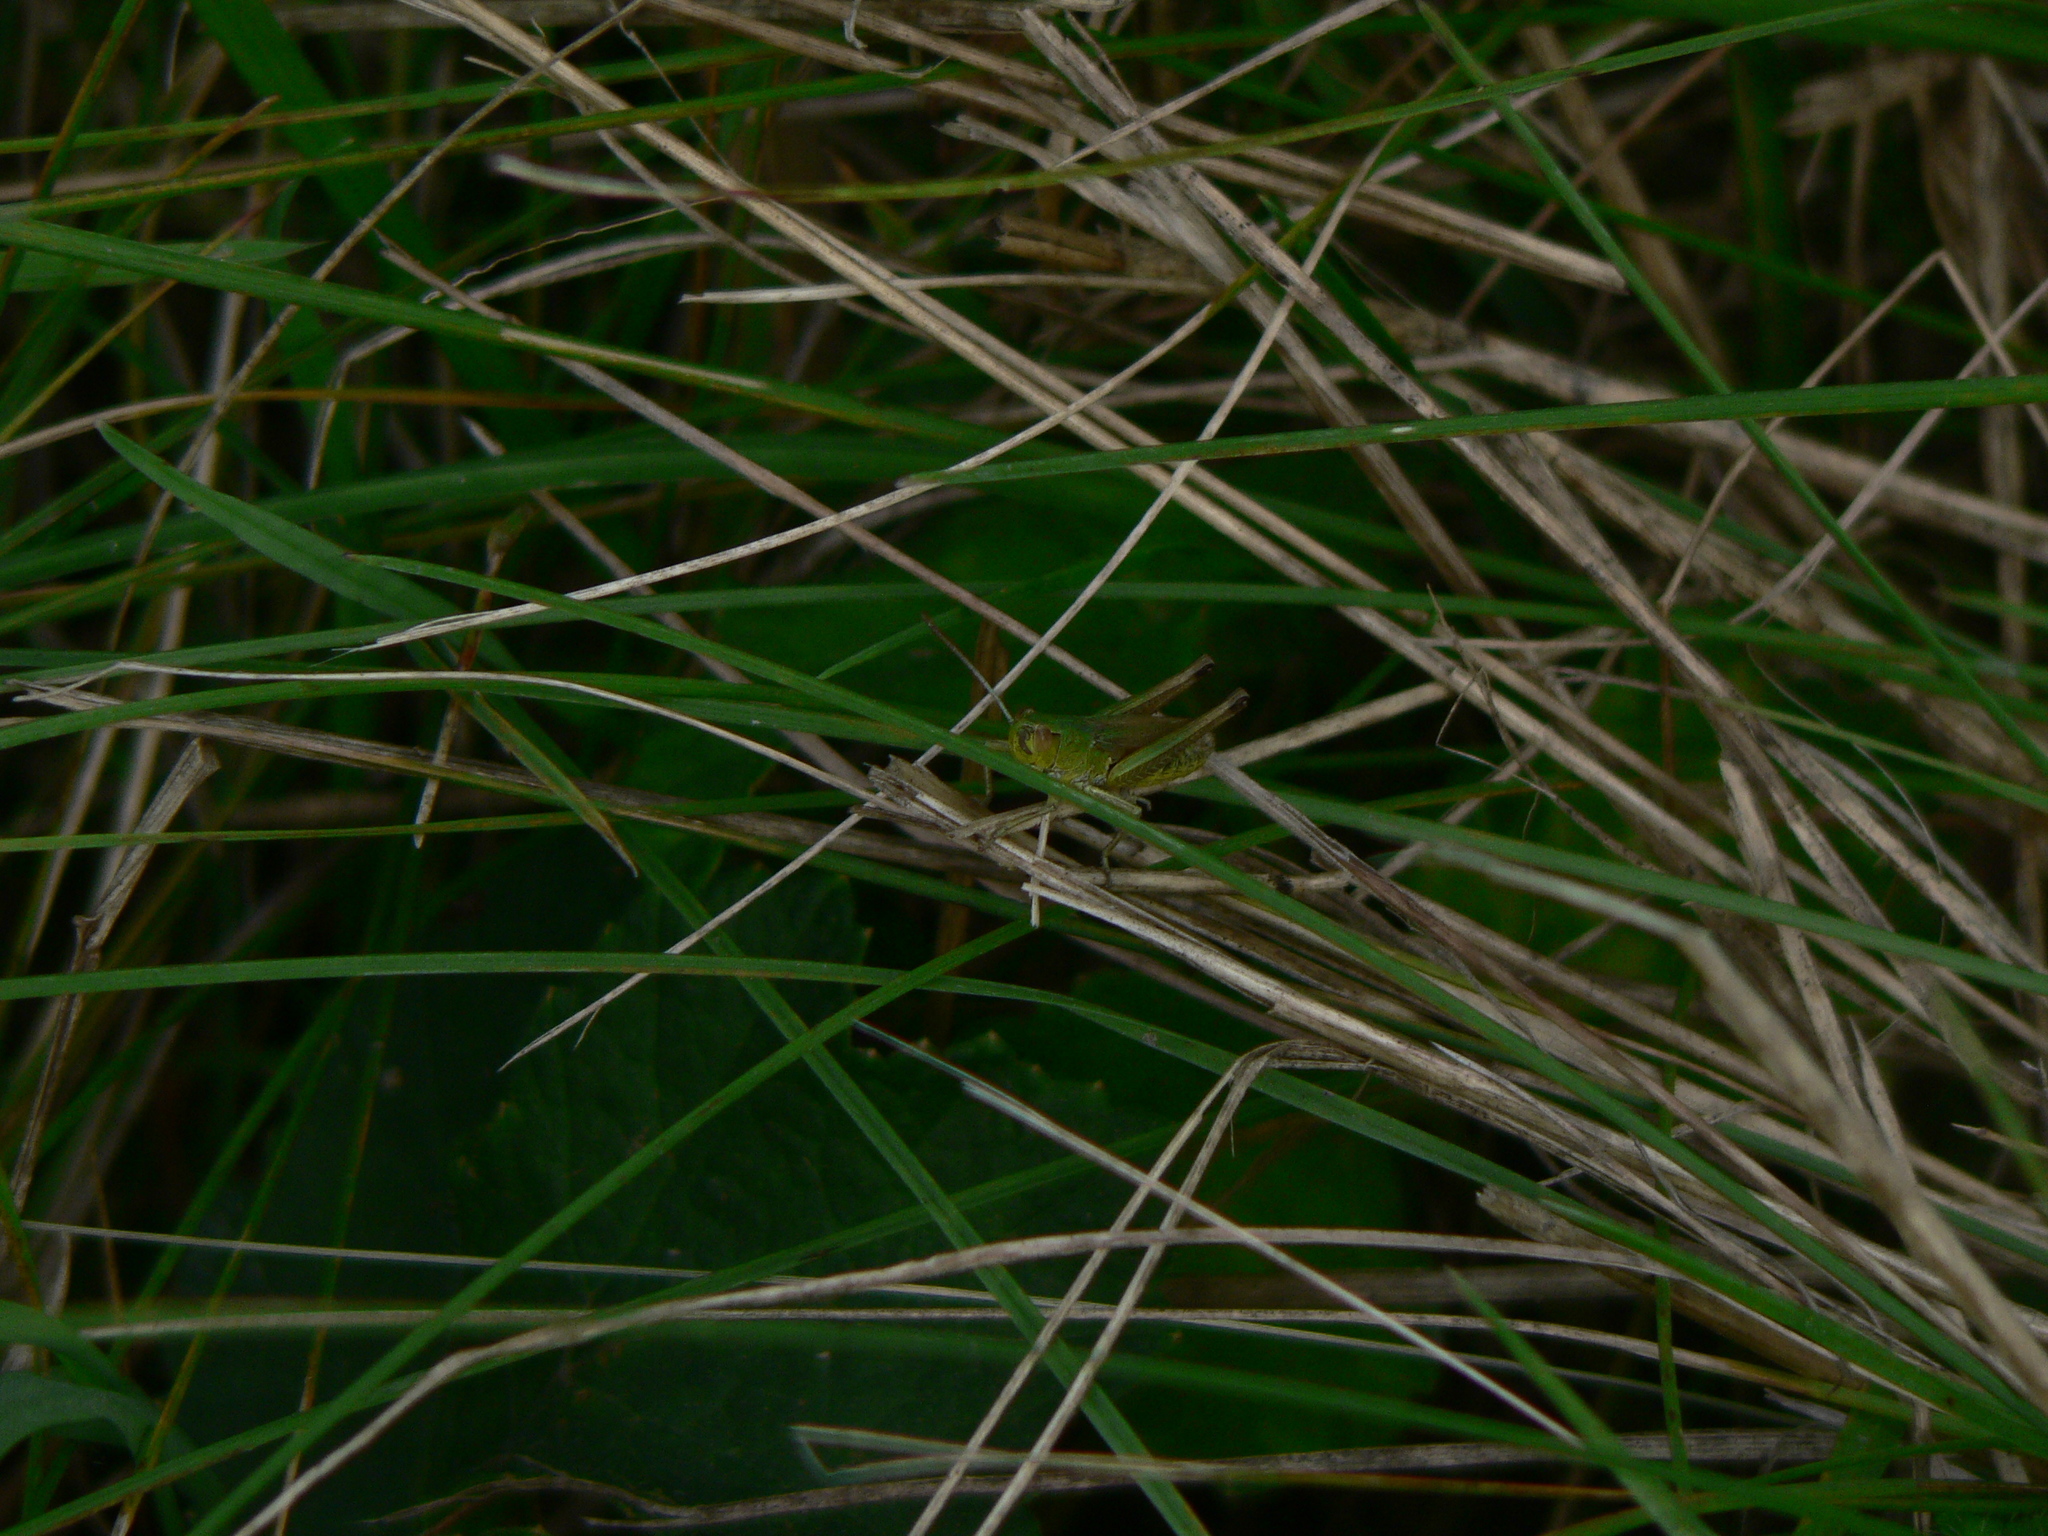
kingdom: Animalia
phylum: Arthropoda
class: Insecta
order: Orthoptera
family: Acrididae
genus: Pseudochorthippus
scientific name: Pseudochorthippus parallelus
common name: Meadow grasshopper
